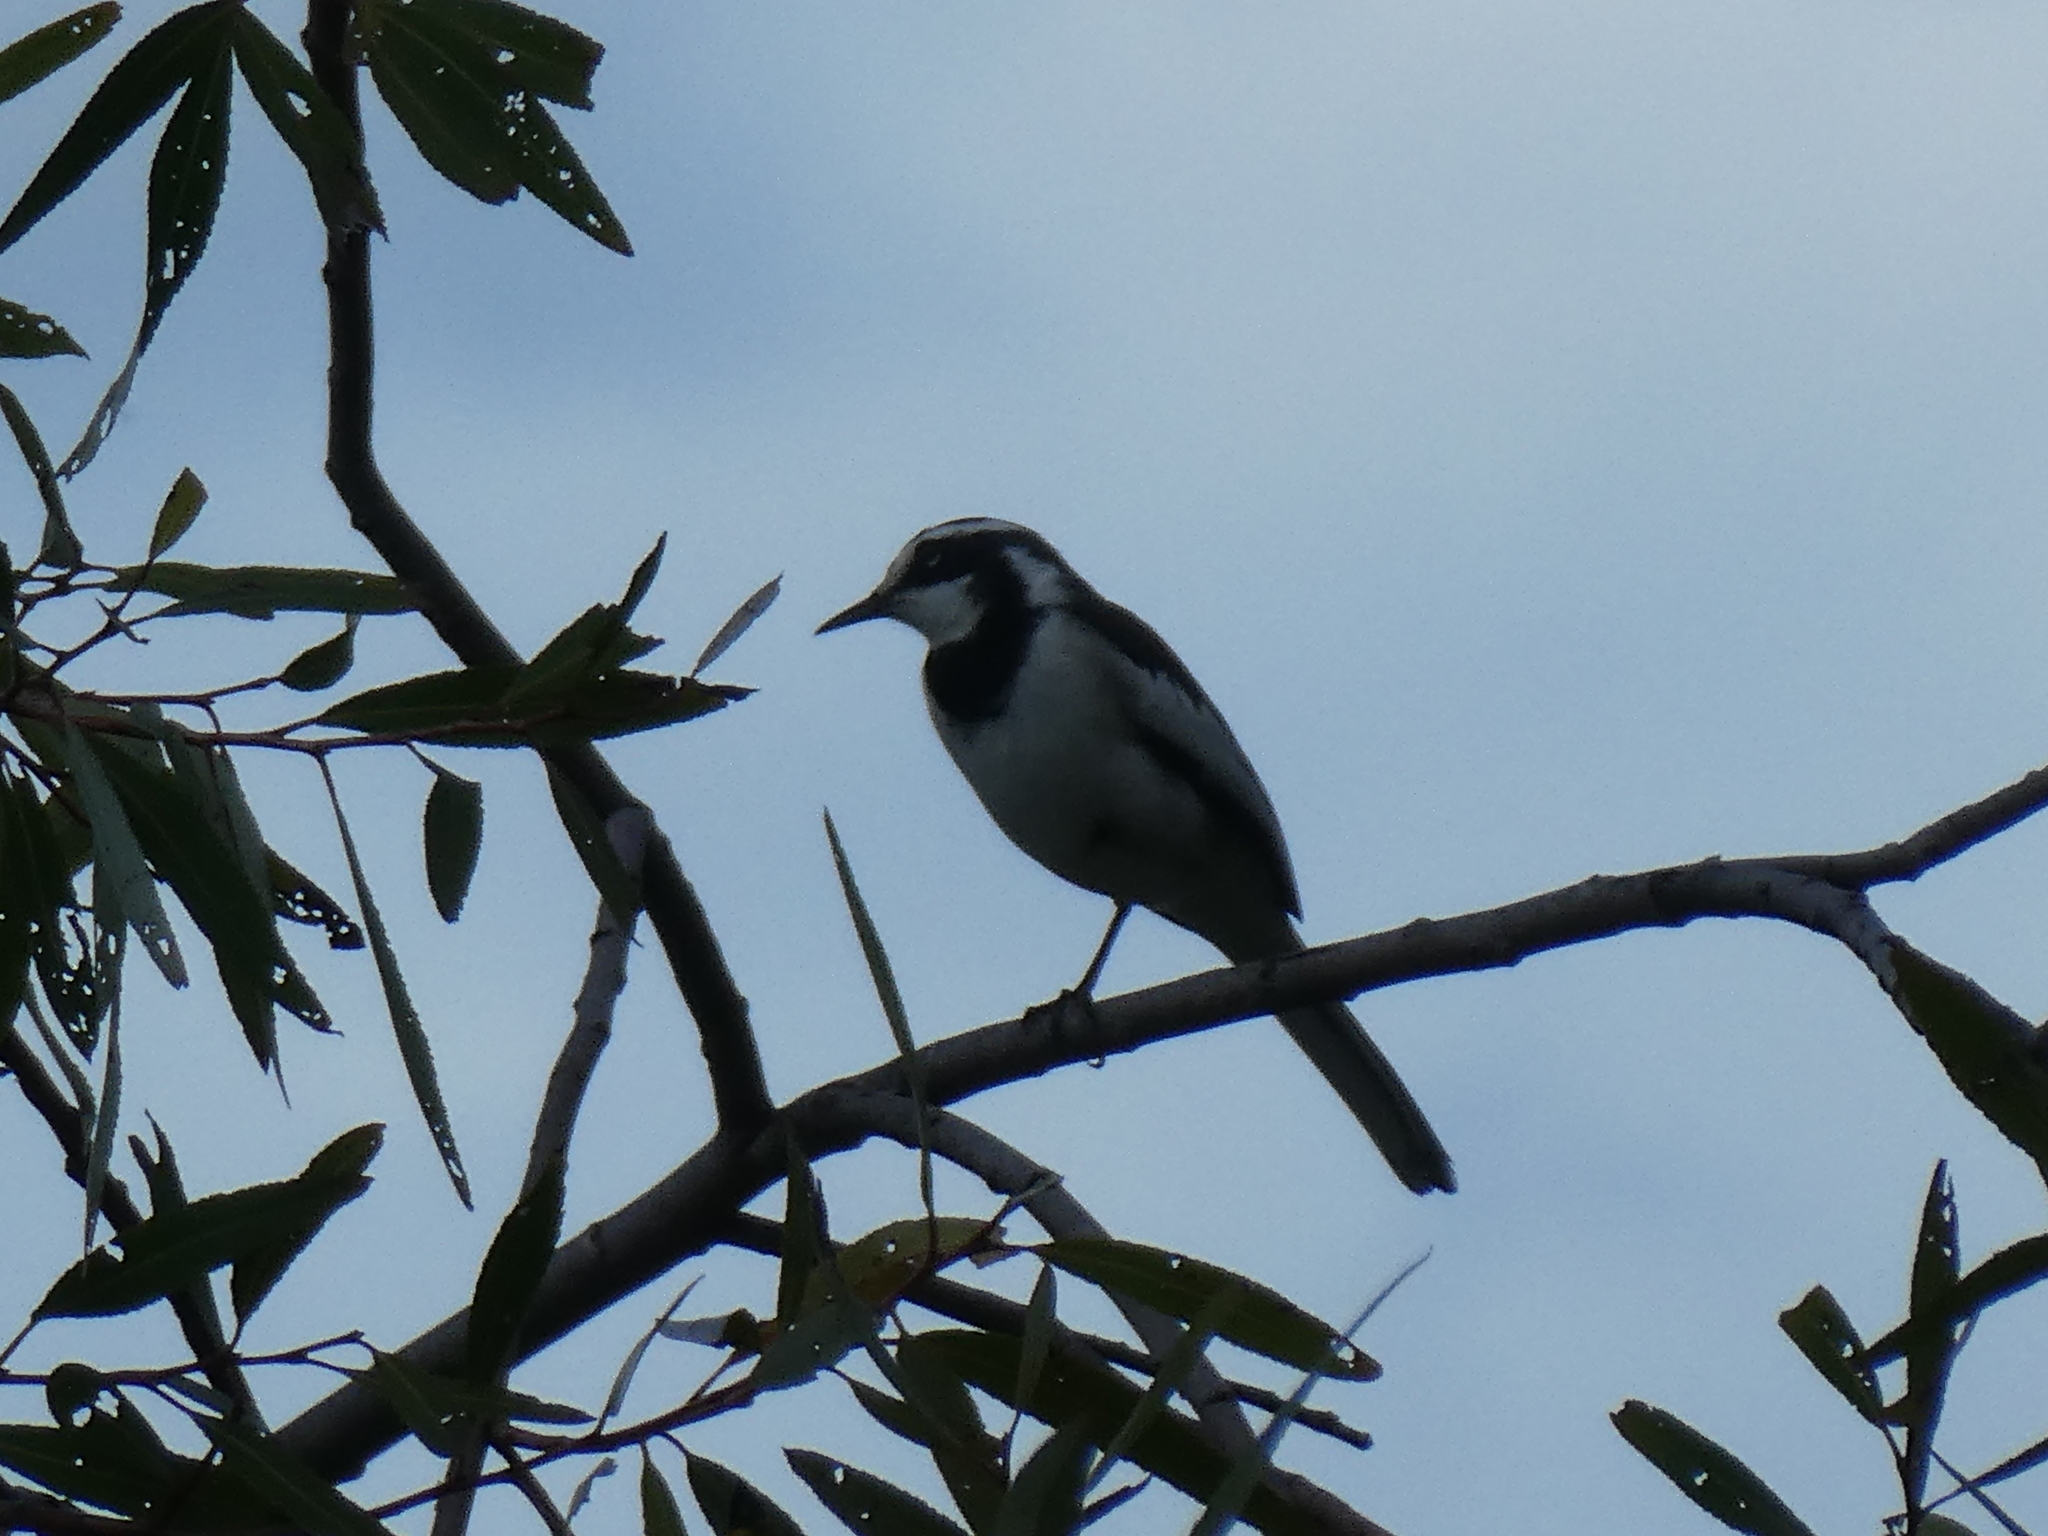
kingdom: Animalia
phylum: Chordata
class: Aves
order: Passeriformes
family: Motacillidae
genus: Motacilla
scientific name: Motacilla aguimp
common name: African pied wagtail
